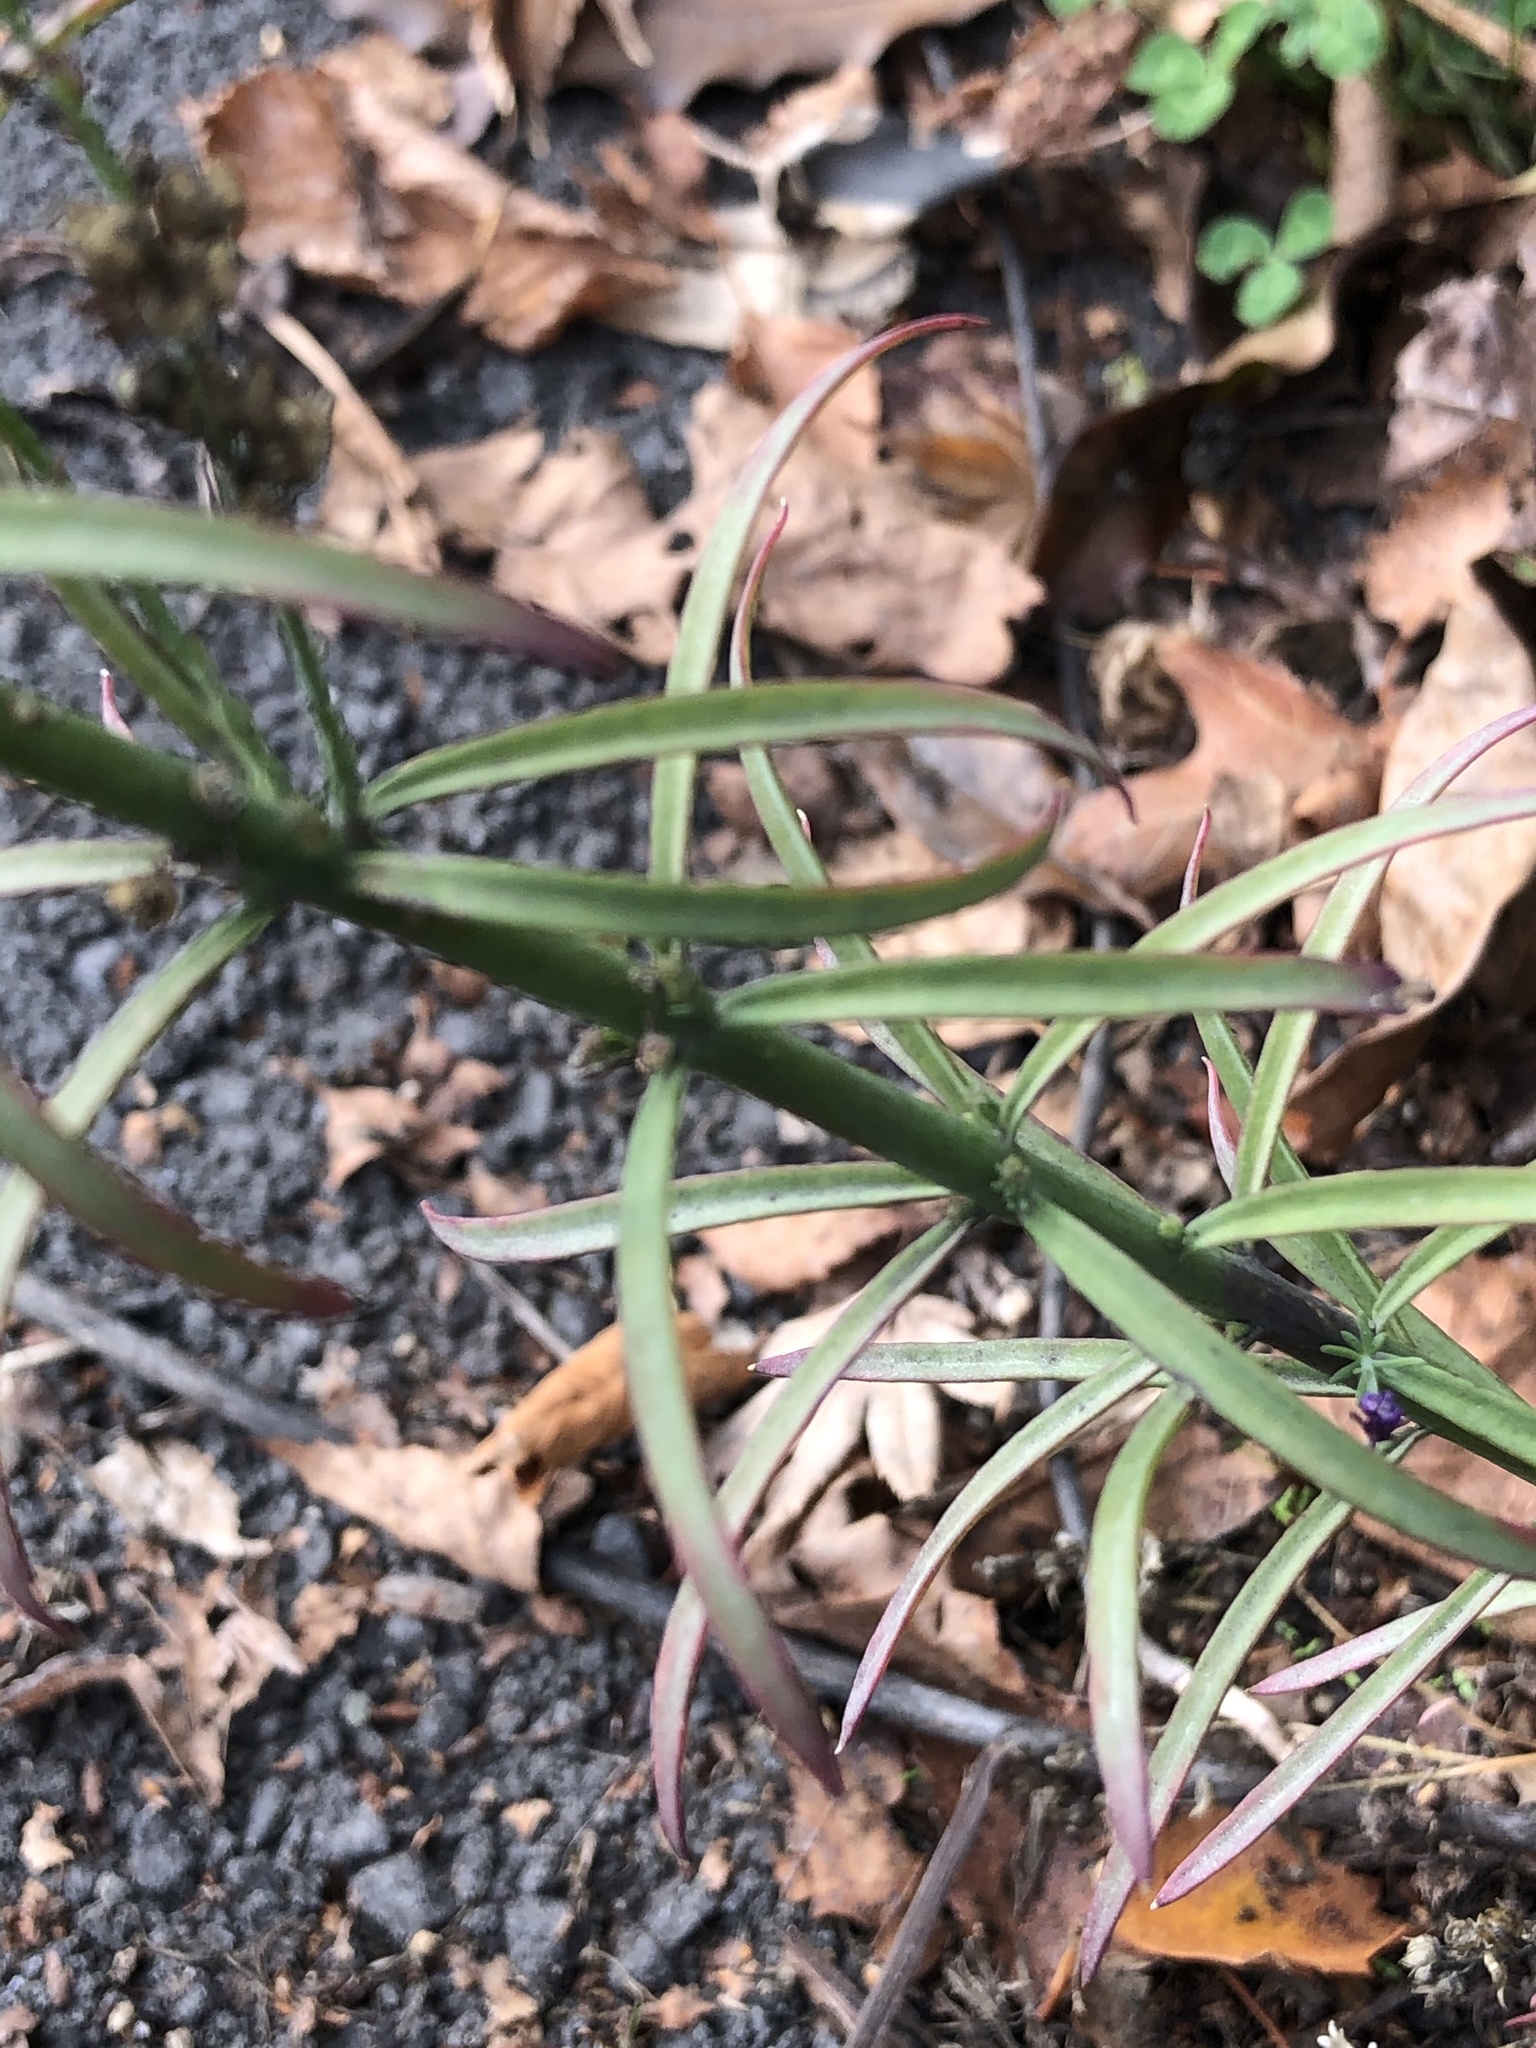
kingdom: Plantae
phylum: Tracheophyta
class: Magnoliopsida
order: Lamiales
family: Plantaginaceae
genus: Linaria
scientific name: Linaria purpurea
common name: Purple toadflax
